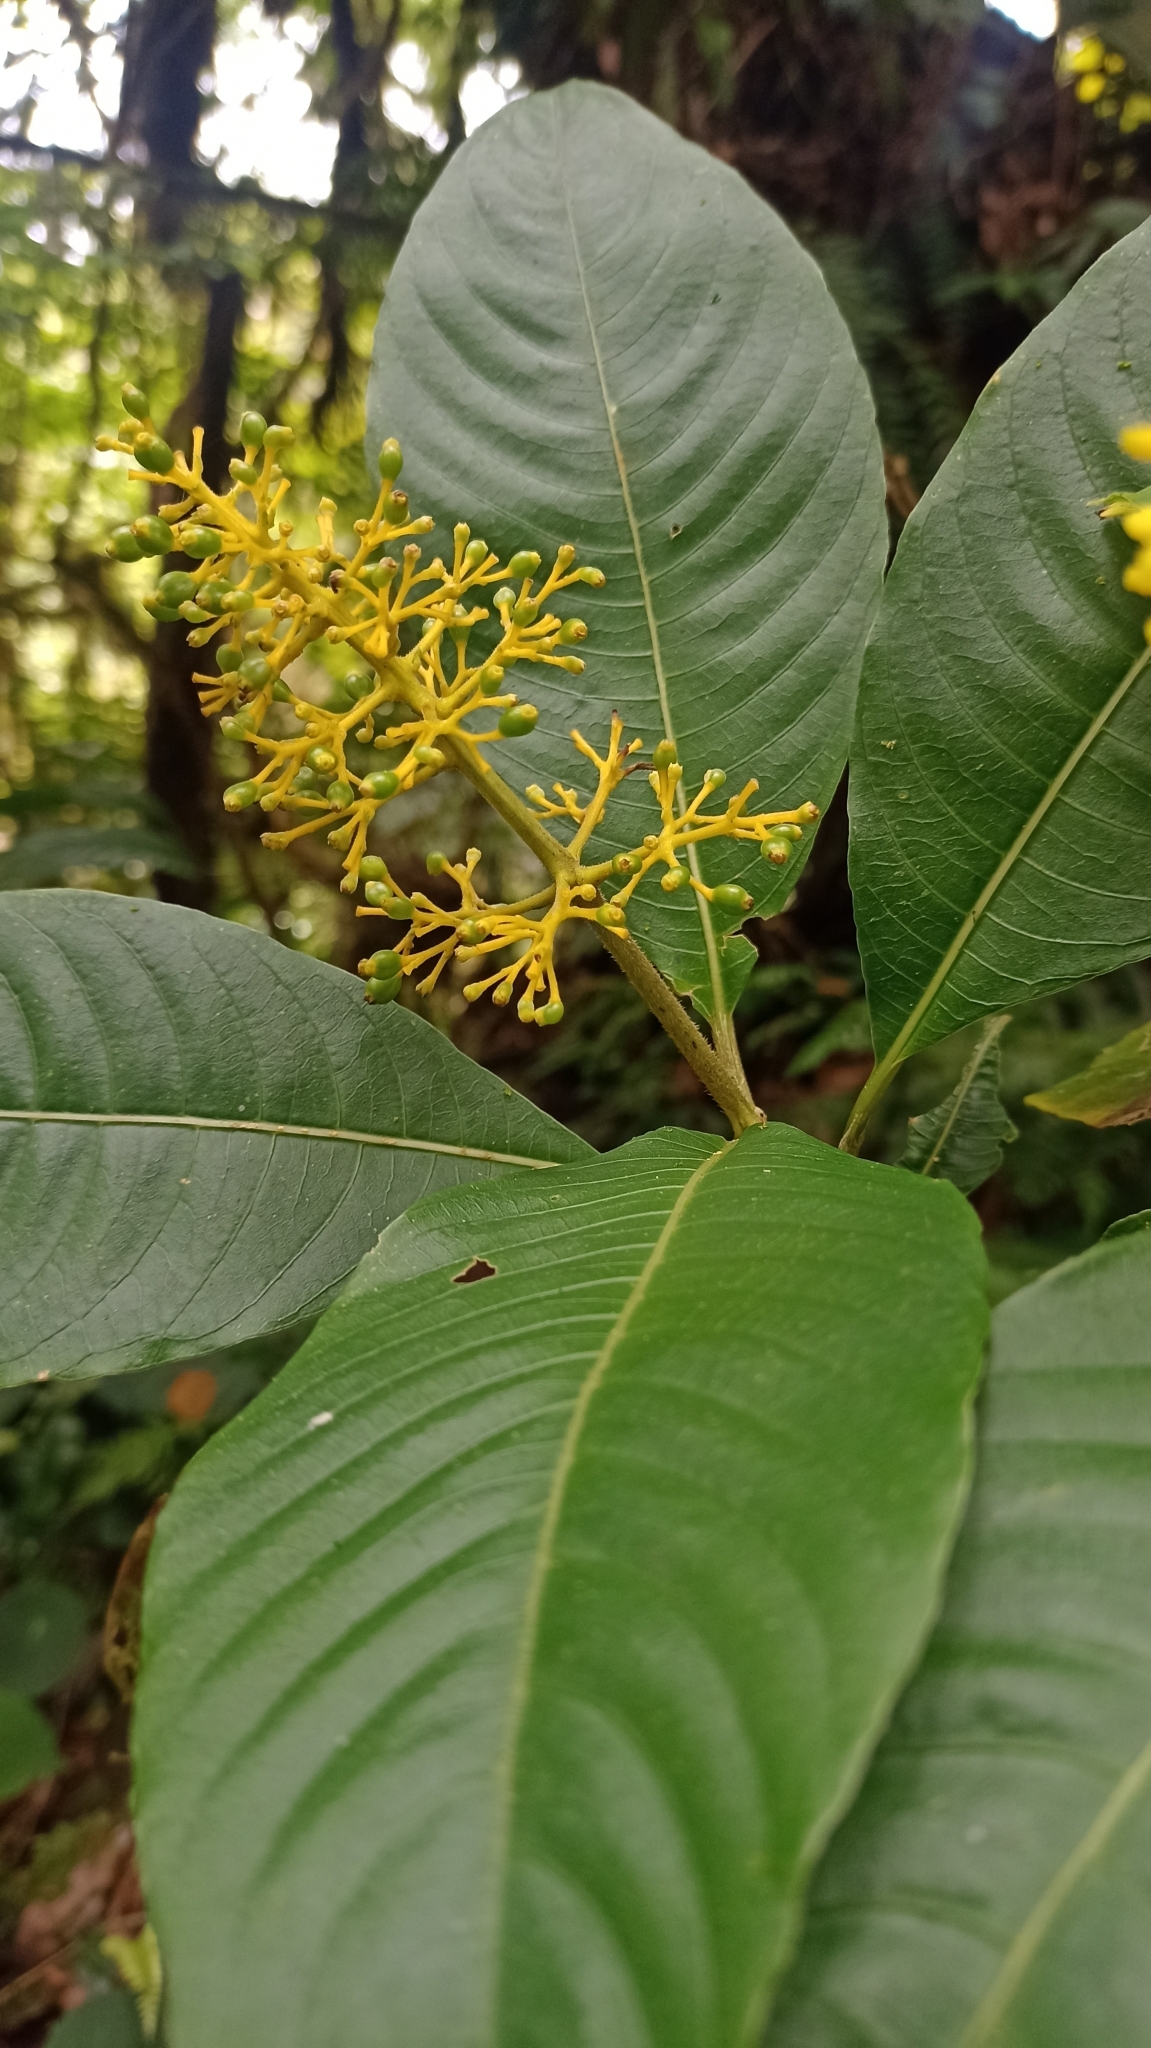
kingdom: Plantae
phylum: Tracheophyta
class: Magnoliopsida
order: Gentianales
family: Rubiaceae
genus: Palicourea
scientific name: Palicourea lasiorrhachis
